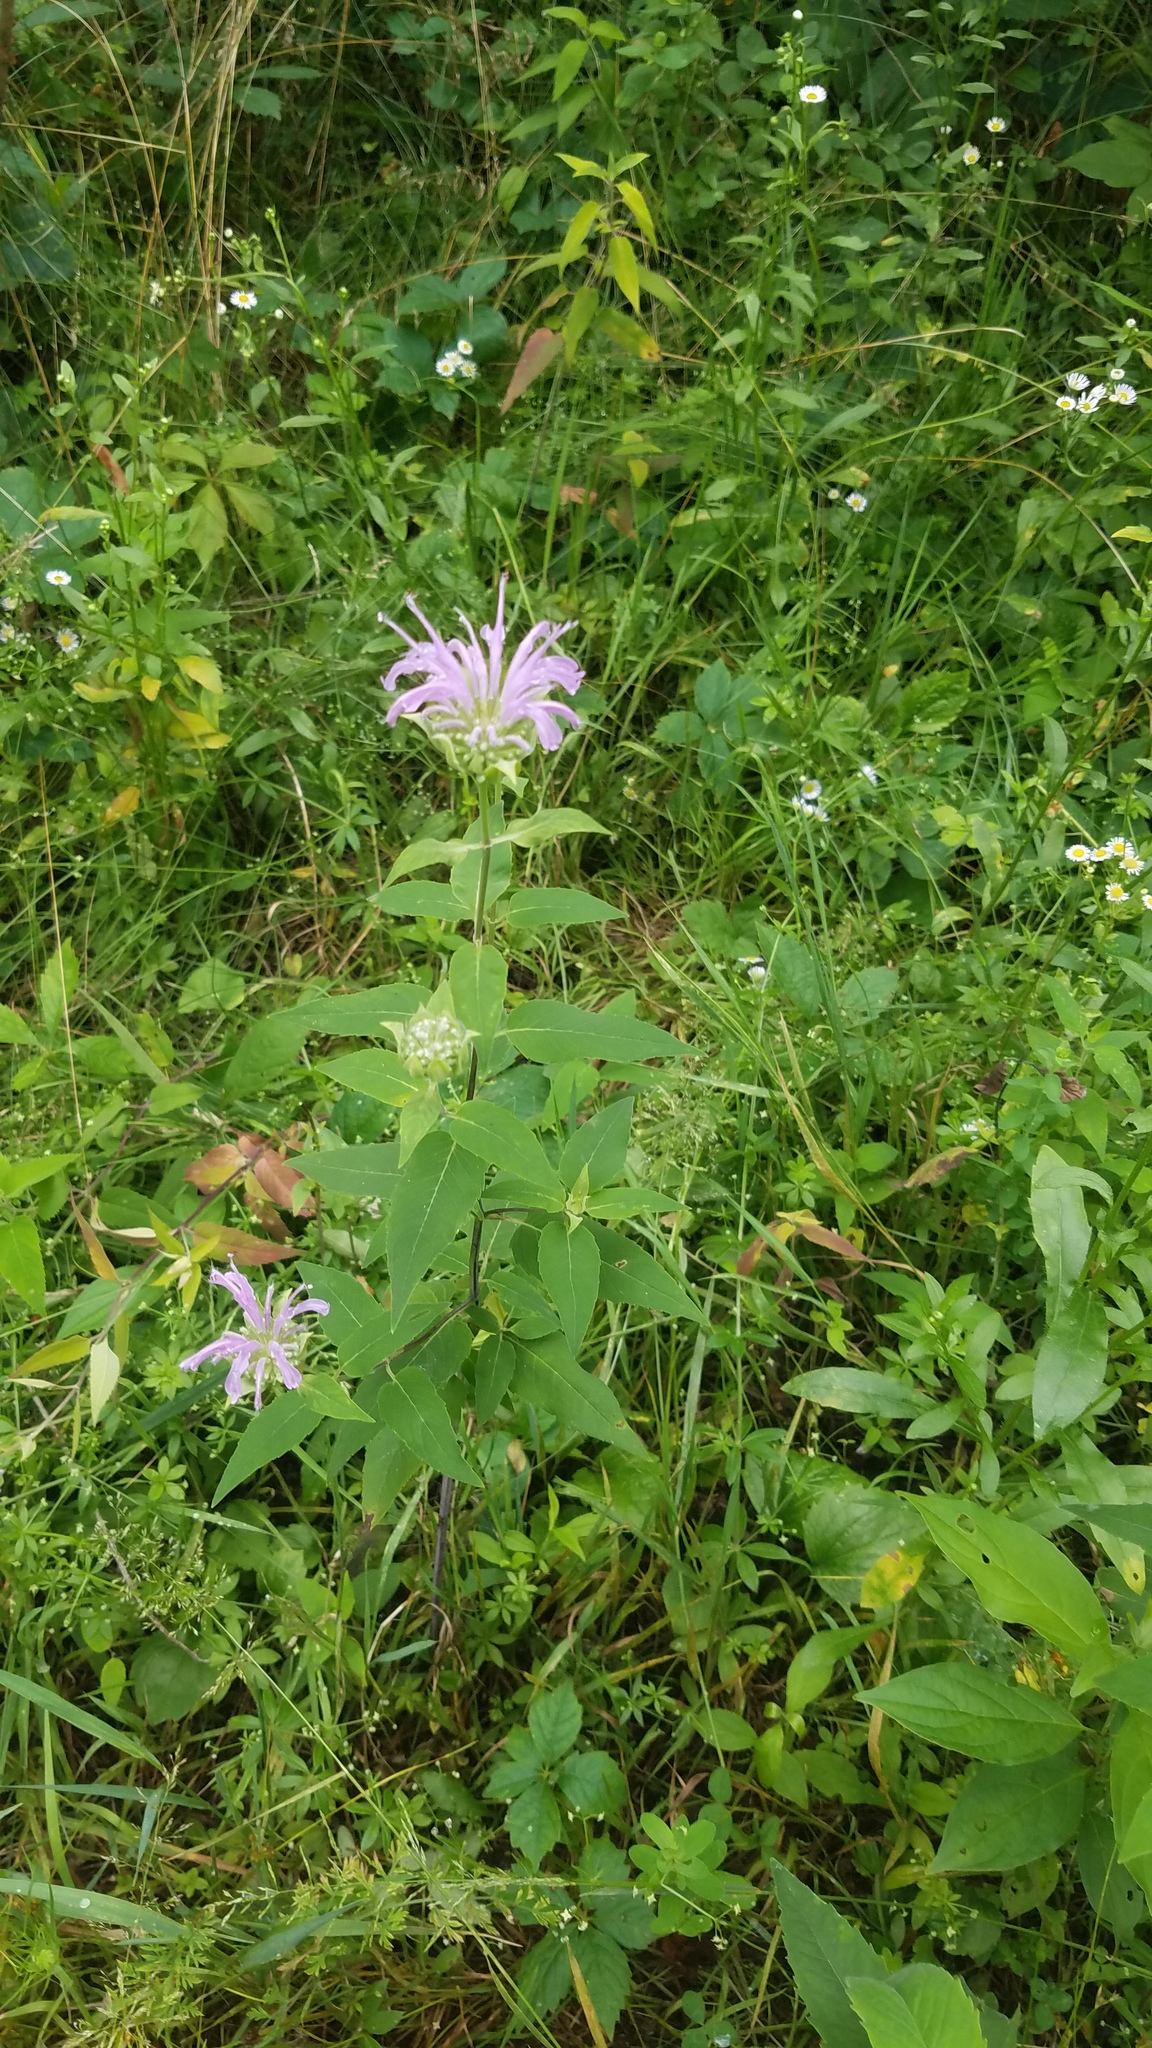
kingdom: Plantae
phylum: Tracheophyta
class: Magnoliopsida
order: Lamiales
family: Lamiaceae
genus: Monarda
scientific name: Monarda fistulosa
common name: Purple beebalm
